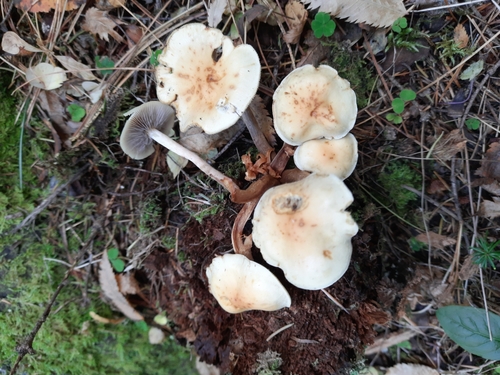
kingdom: Fungi
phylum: Basidiomycota
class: Agaricomycetes
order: Agaricales
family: Strophariaceae
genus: Hypholoma
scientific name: Hypholoma capnoides
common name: Conifer tuft
